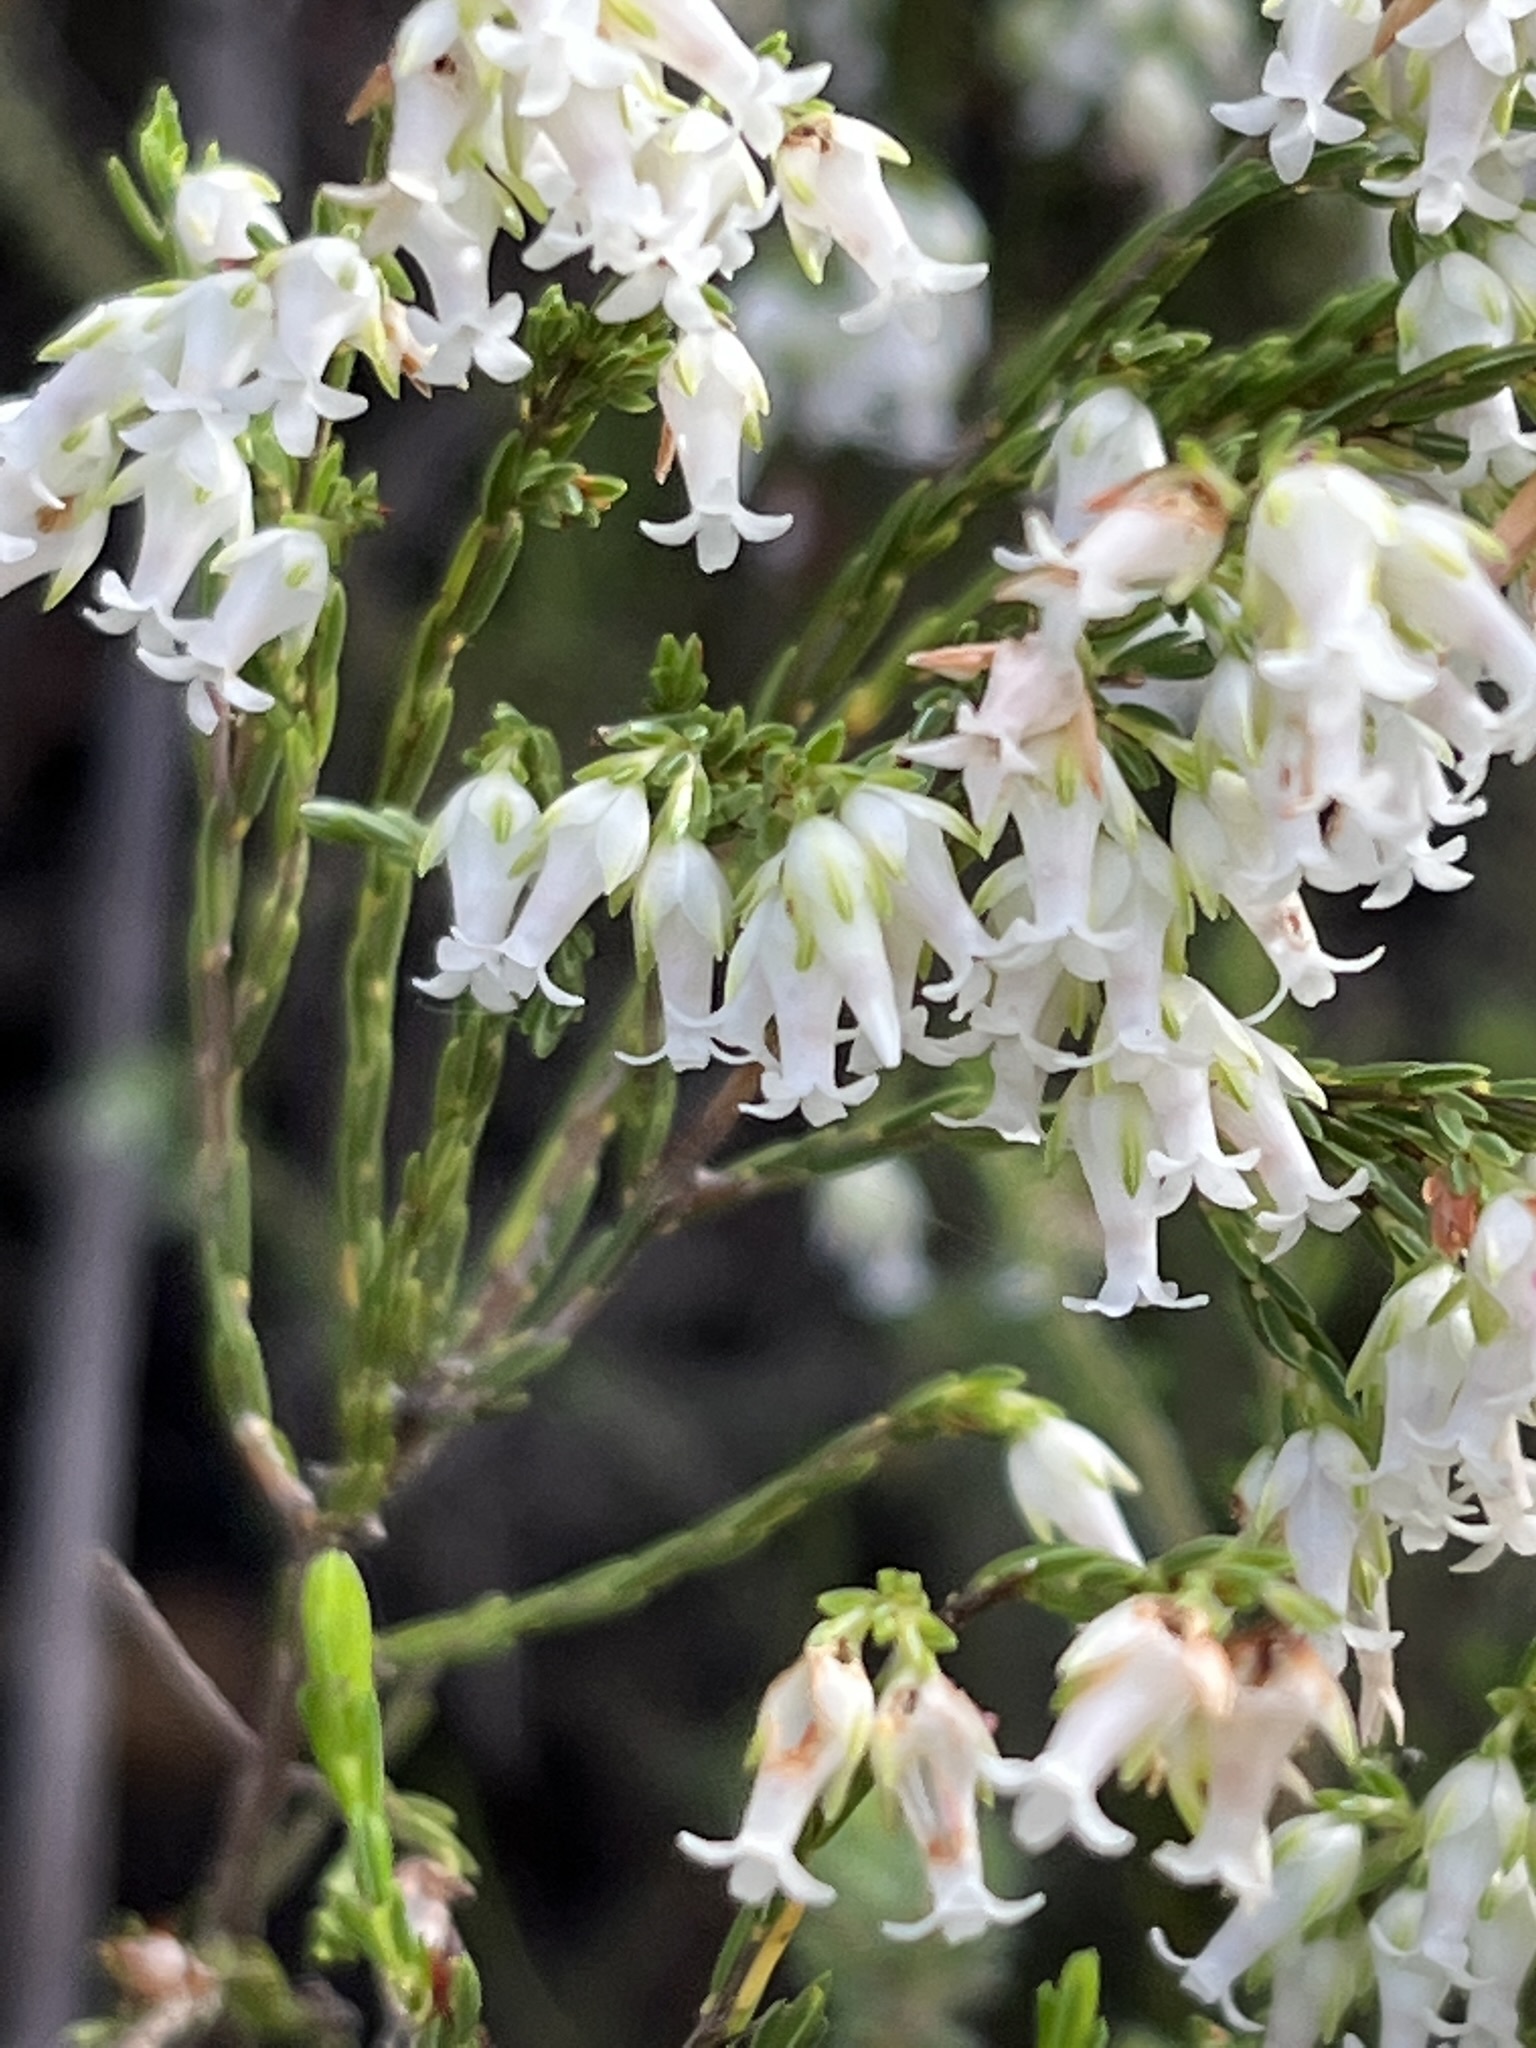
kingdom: Plantae
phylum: Tracheophyta
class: Magnoliopsida
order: Ericales
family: Ericaceae
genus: Erica
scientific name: Erica lutea
